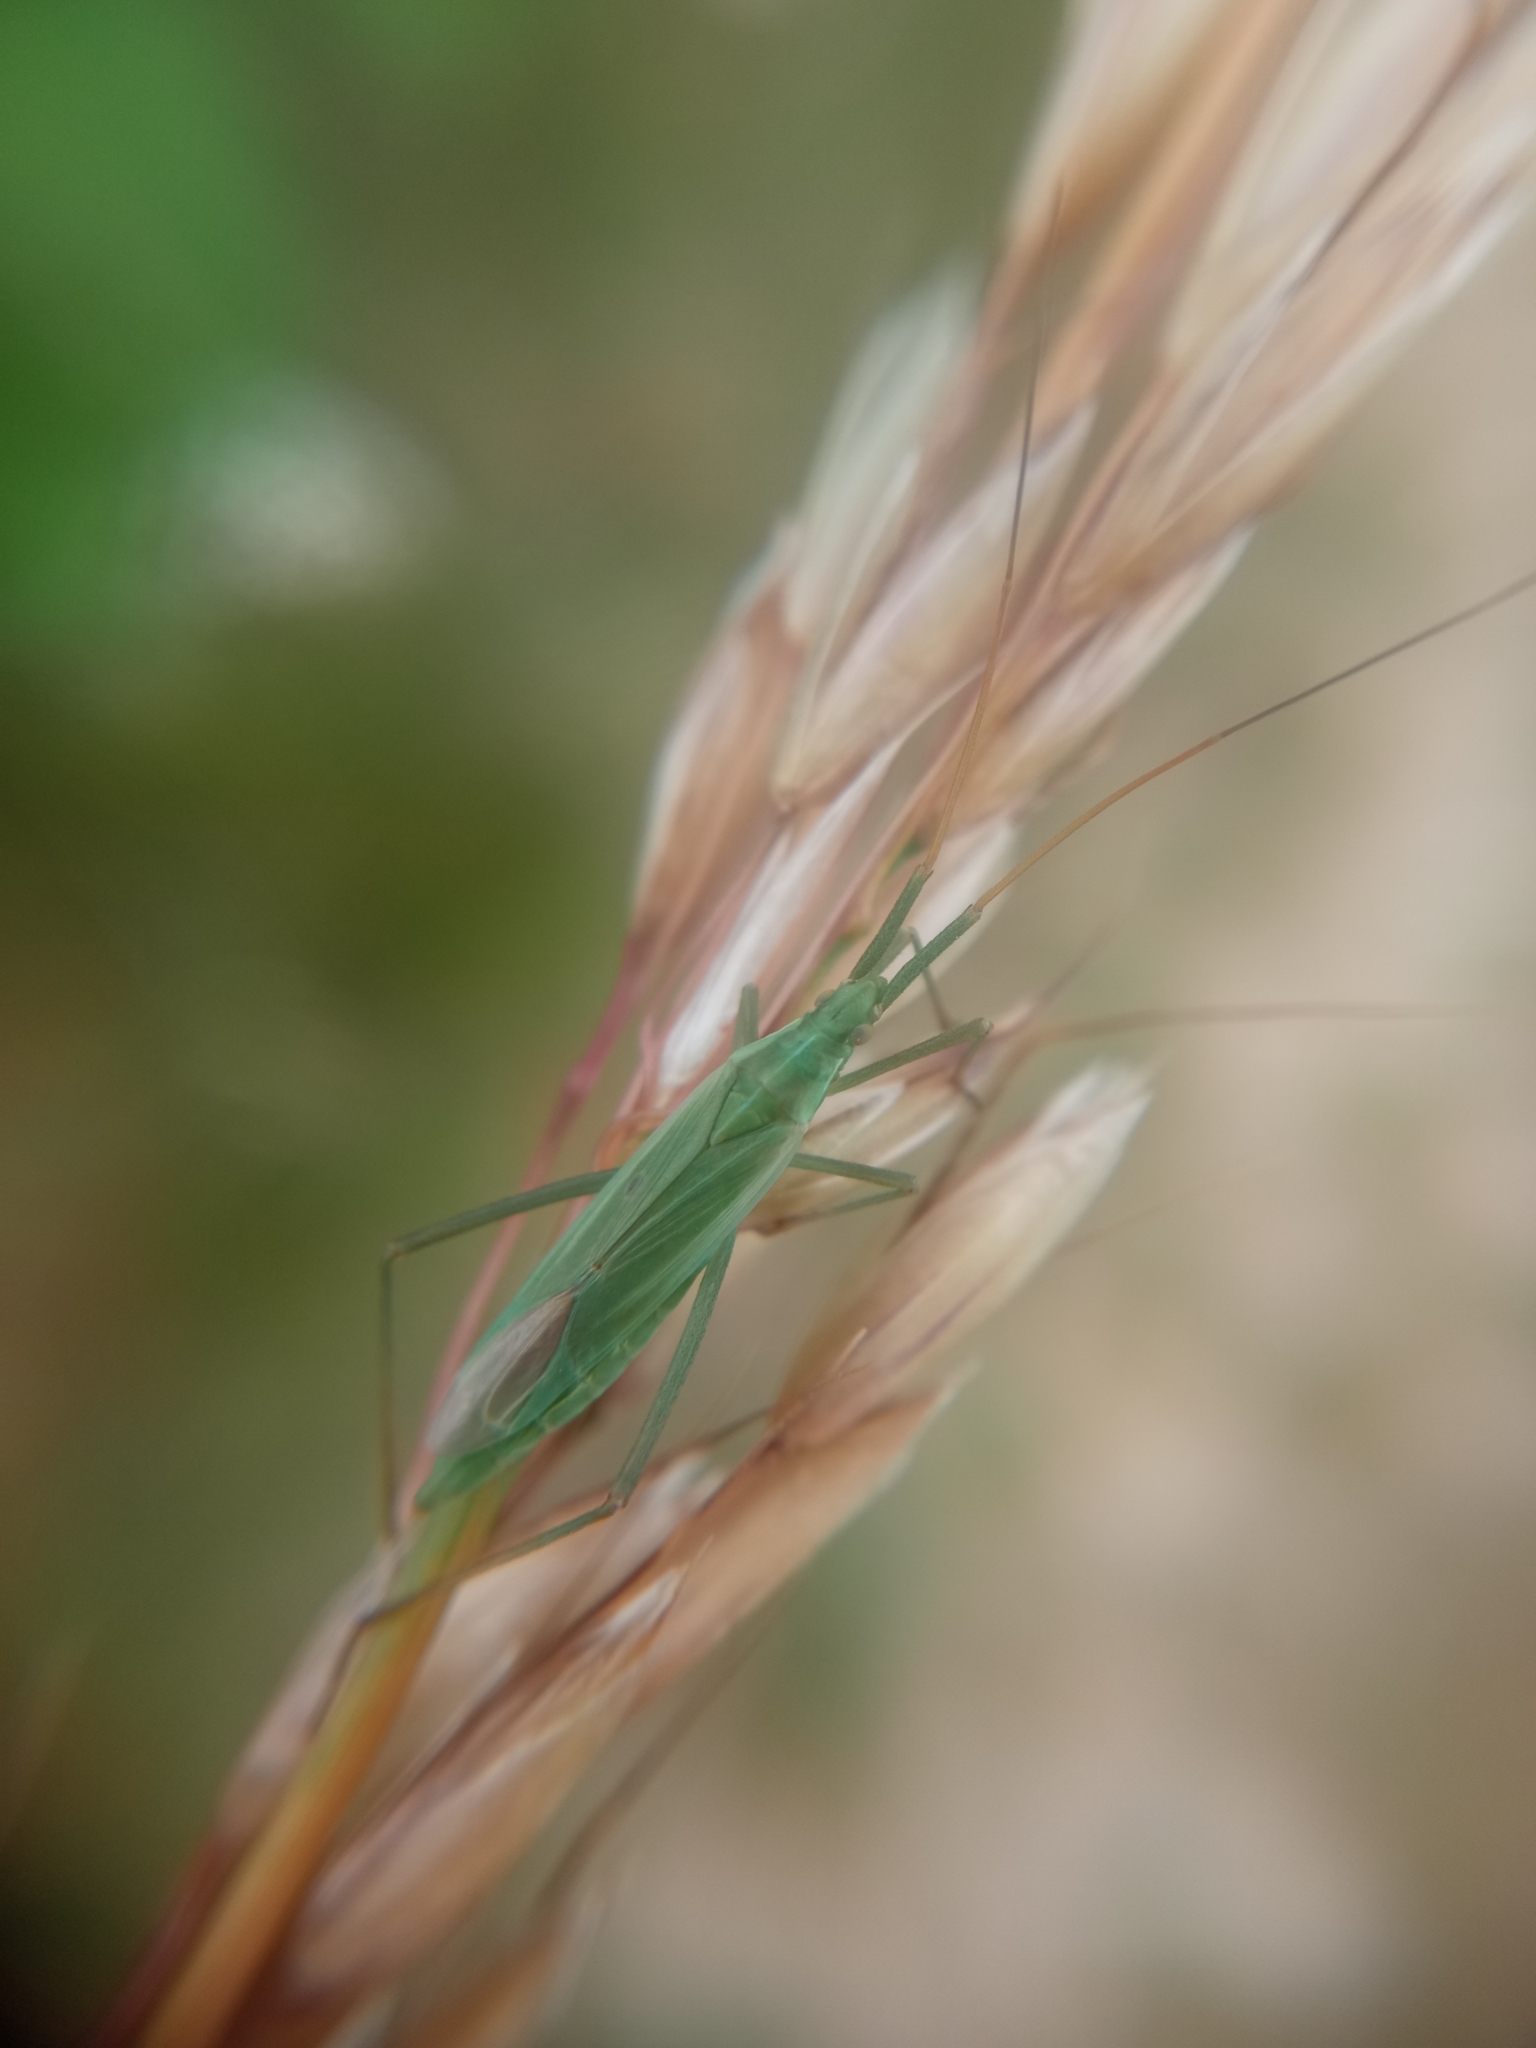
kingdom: Animalia
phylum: Arthropoda
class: Insecta
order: Hemiptera
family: Miridae
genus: Megaloceroea
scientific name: Megaloceroea recticornis
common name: Plant bug
